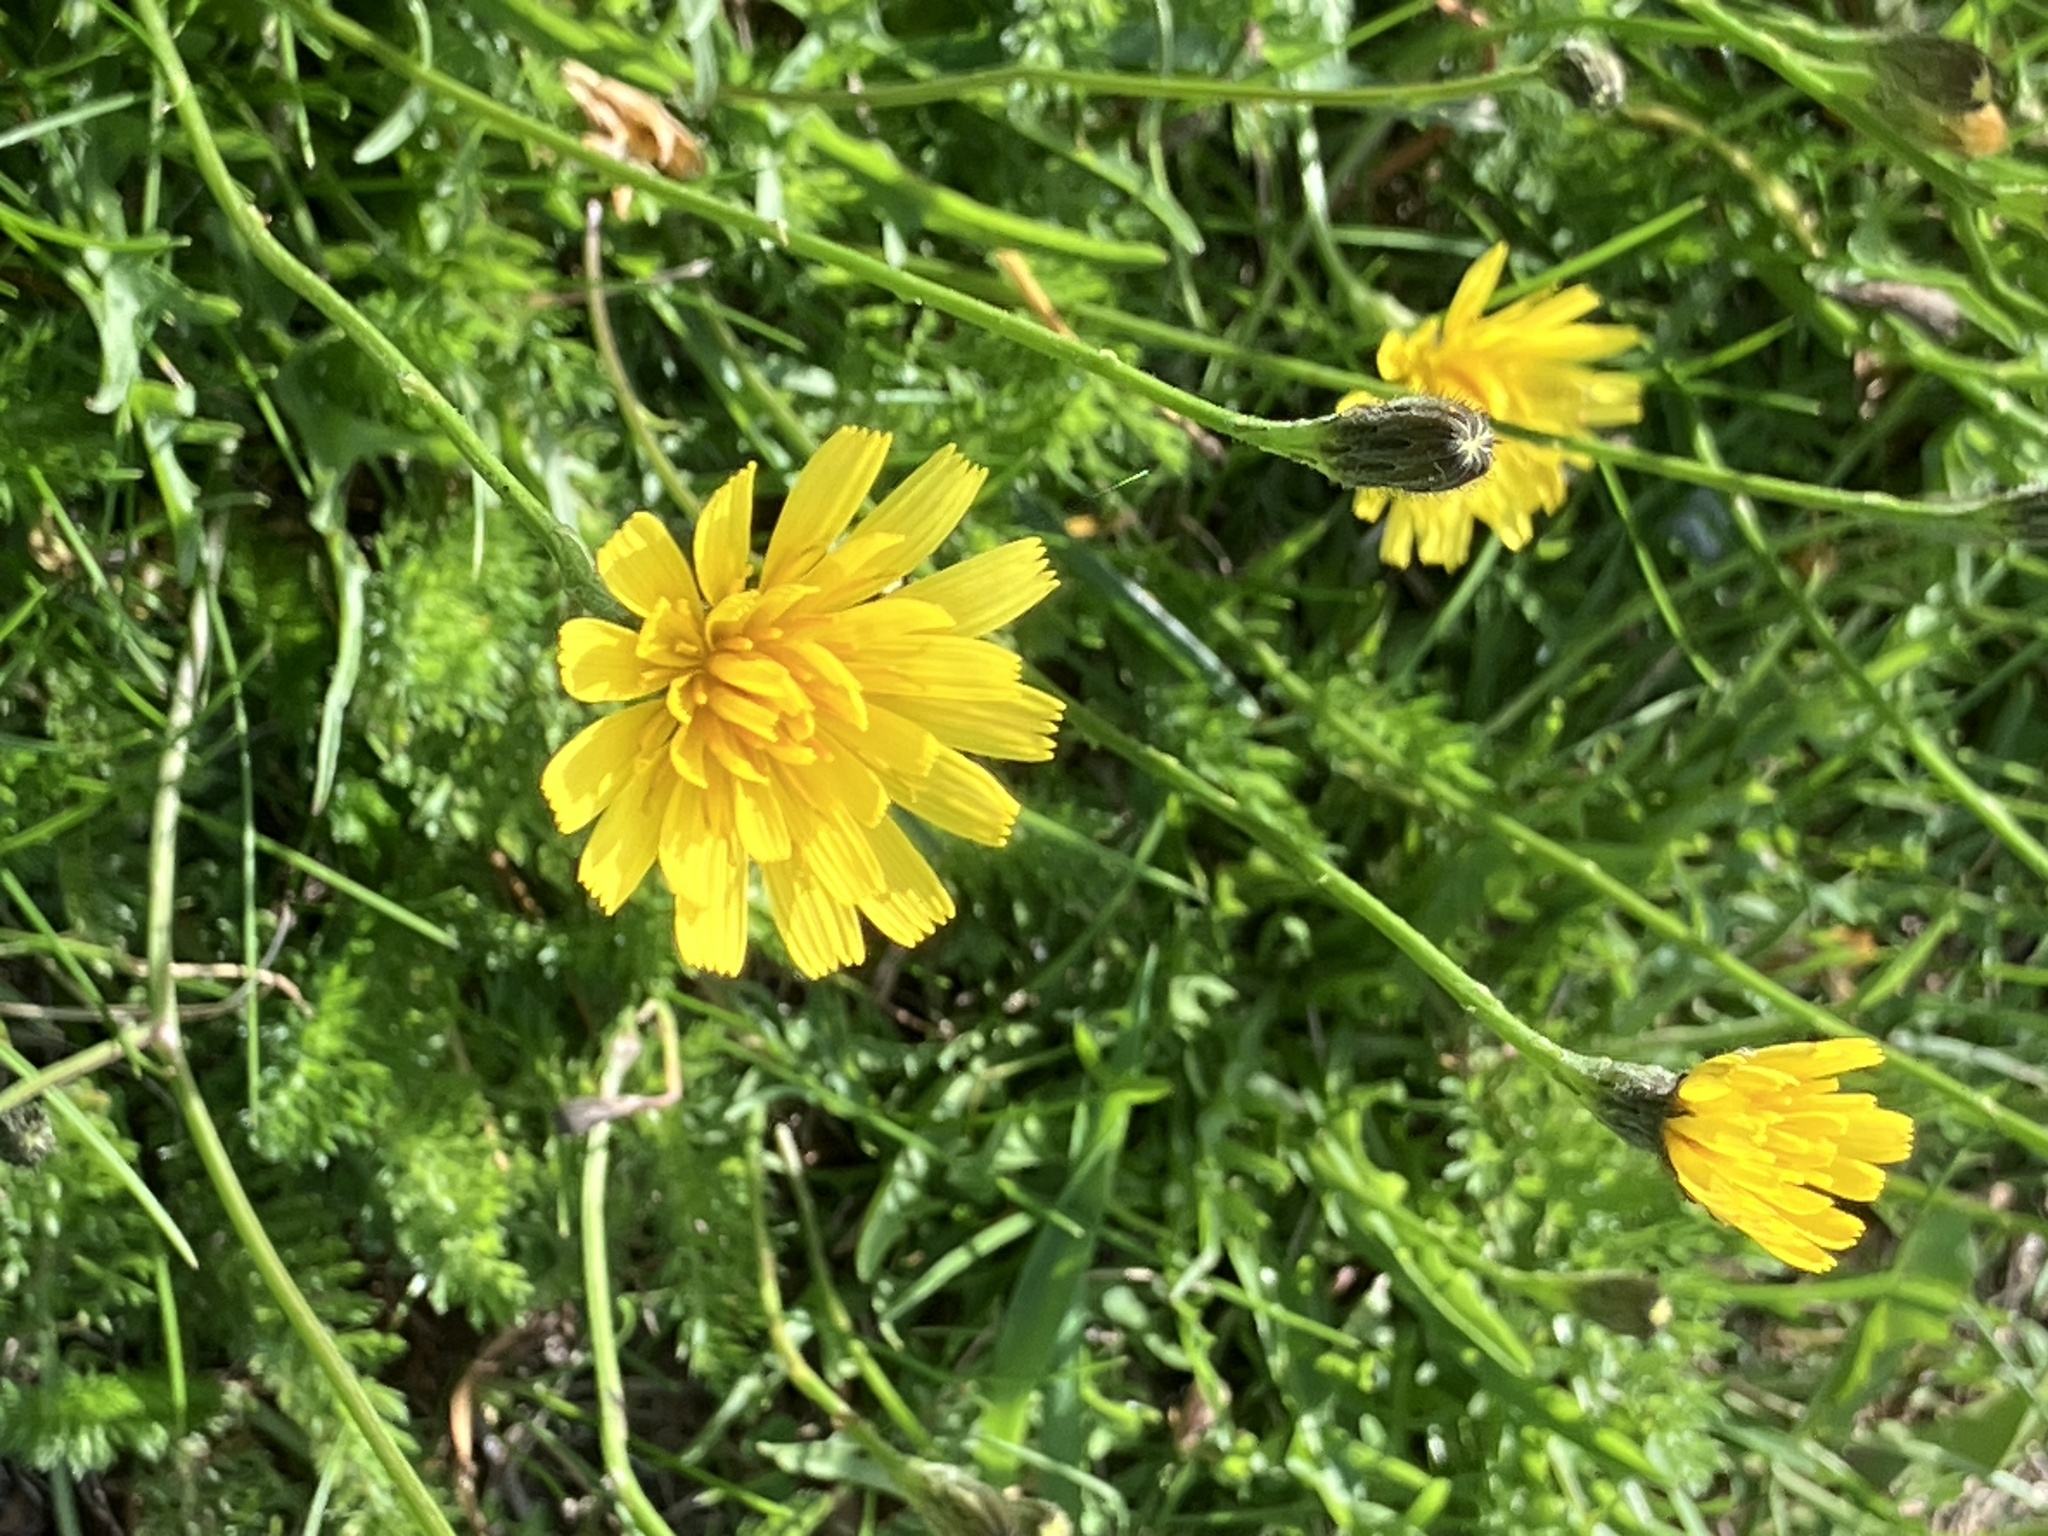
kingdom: Plantae
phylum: Tracheophyta
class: Magnoliopsida
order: Asterales
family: Asteraceae
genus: Scorzoneroides
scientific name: Scorzoneroides autumnalis
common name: Autumn hawkbit
